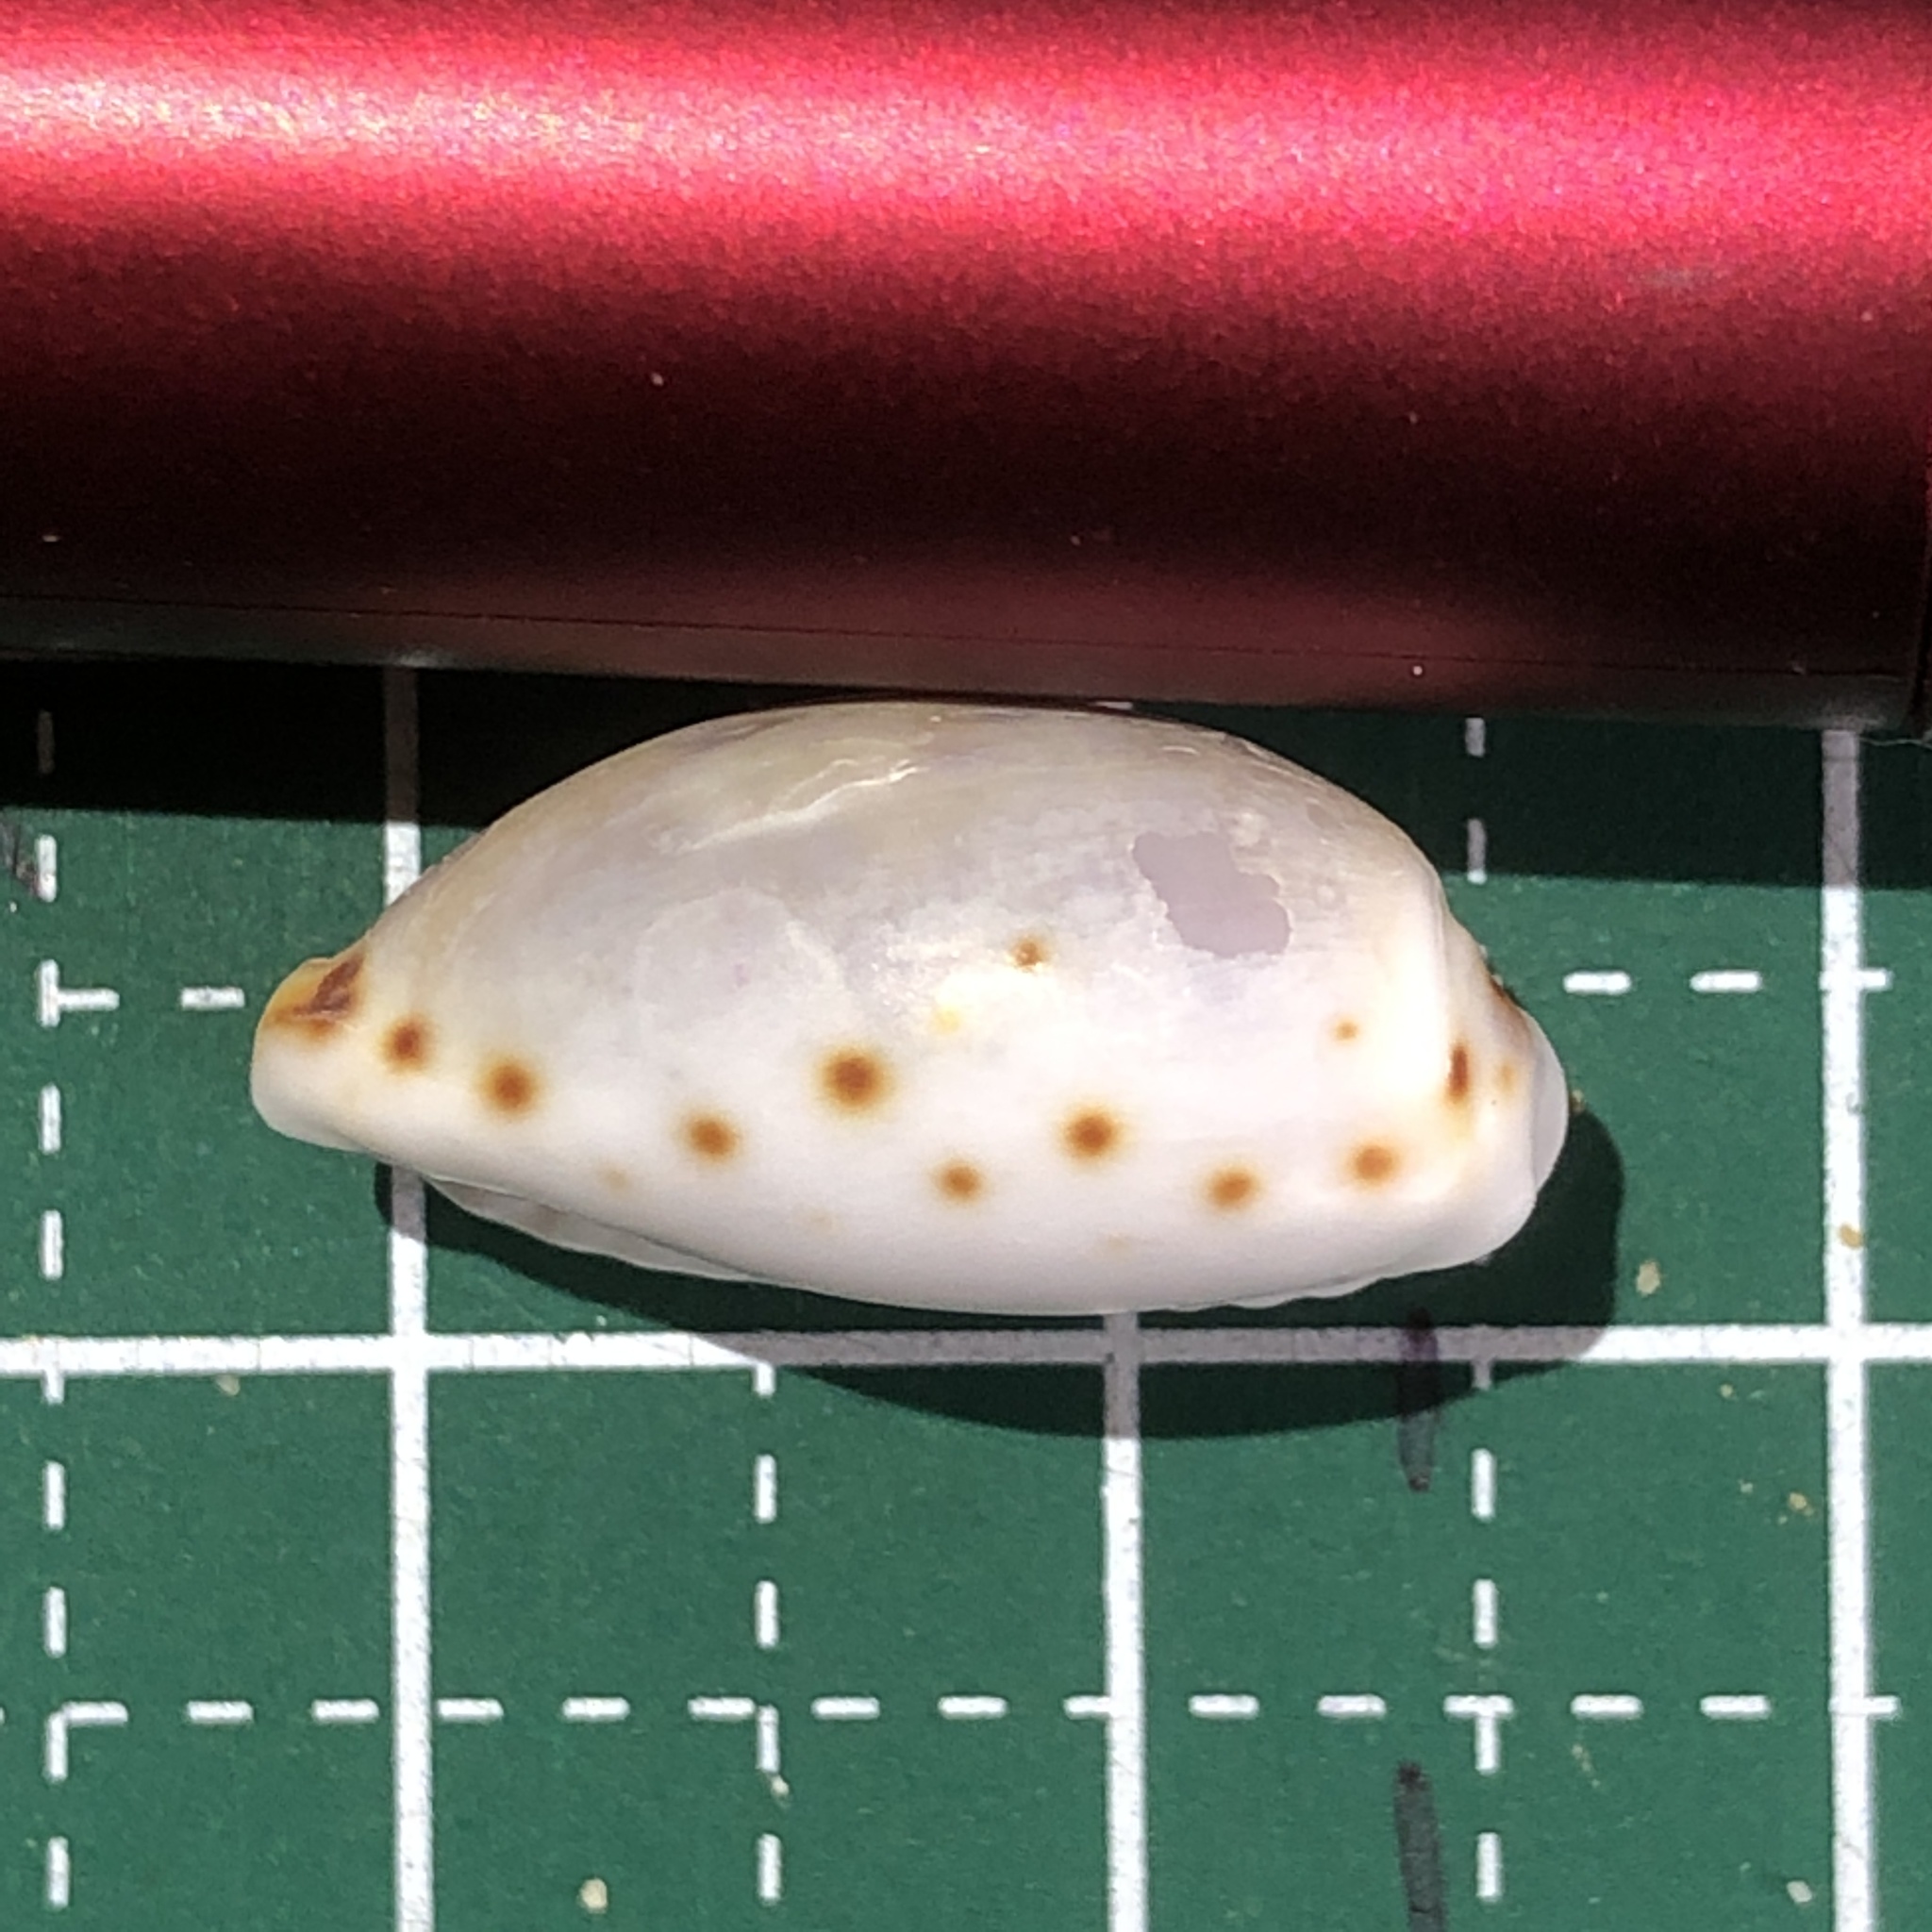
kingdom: Animalia
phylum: Mollusca
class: Gastropoda
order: Littorinimorpha
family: Cypraeidae
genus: Naria
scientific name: Naria labrolineata
